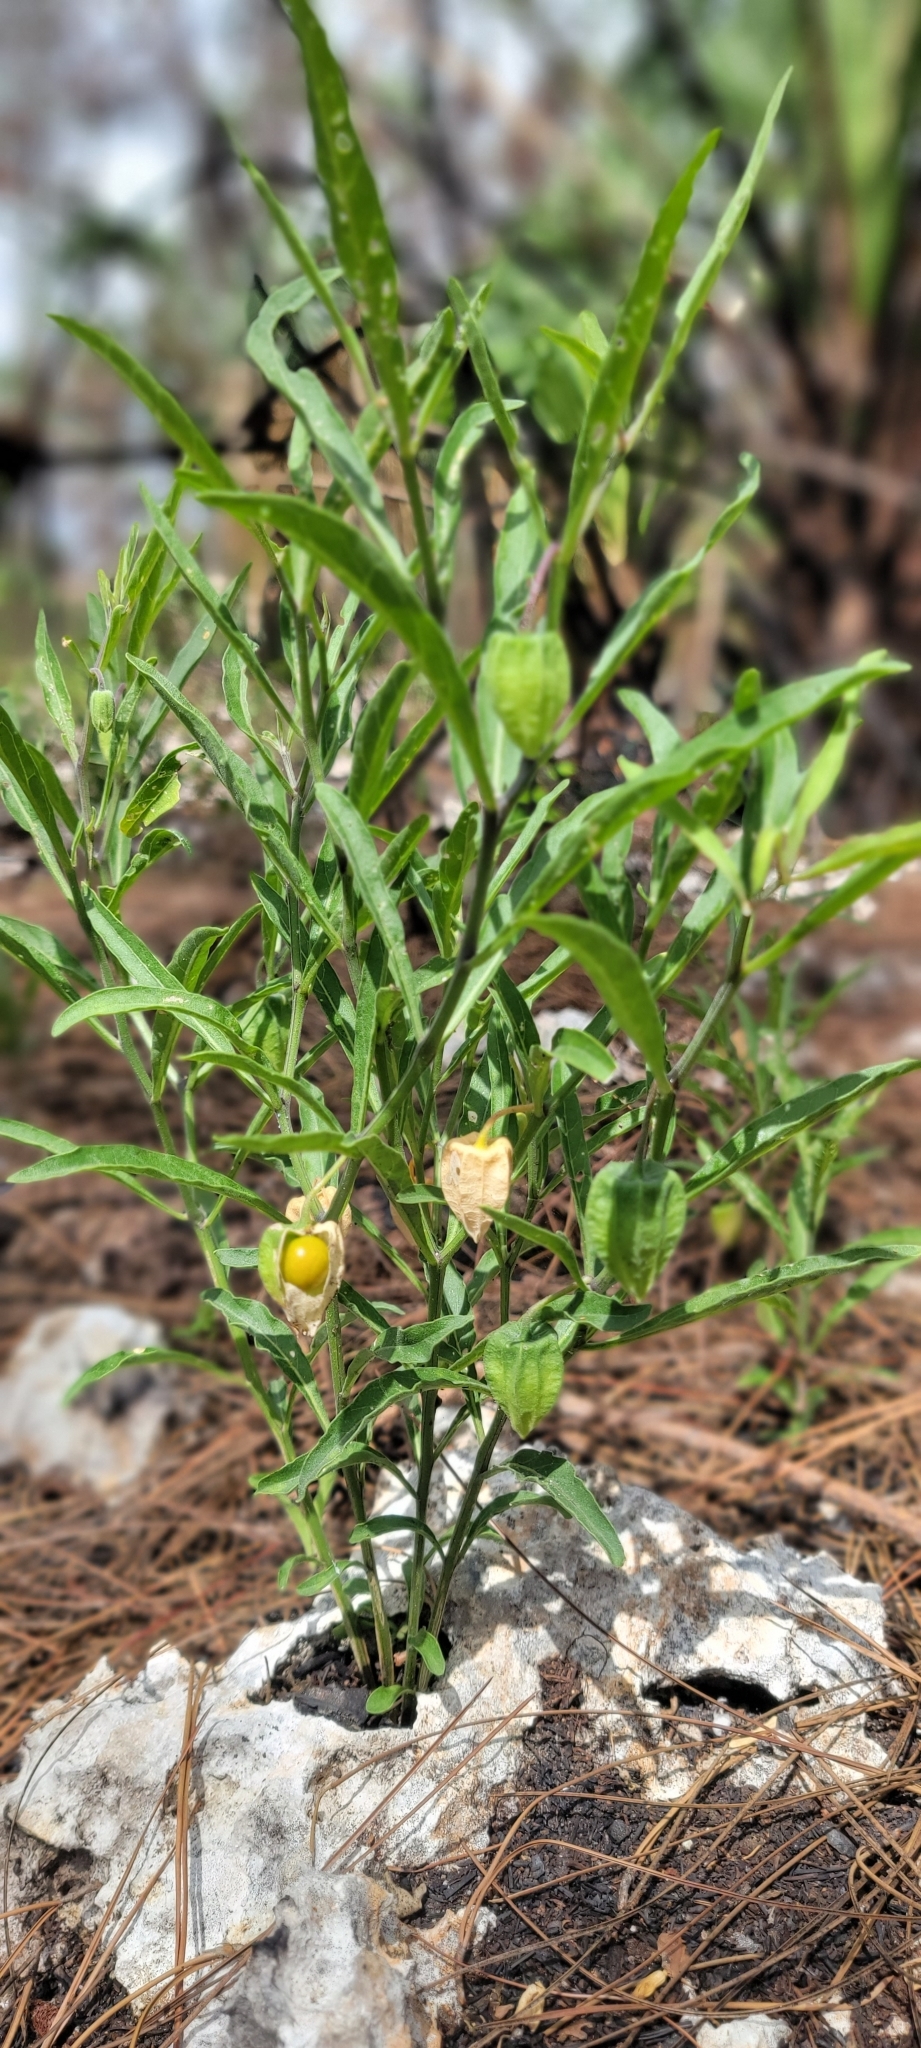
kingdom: Plantae
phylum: Tracheophyta
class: Magnoliopsida
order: Solanales
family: Solanaceae
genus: Physalis
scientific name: Physalis walteri
